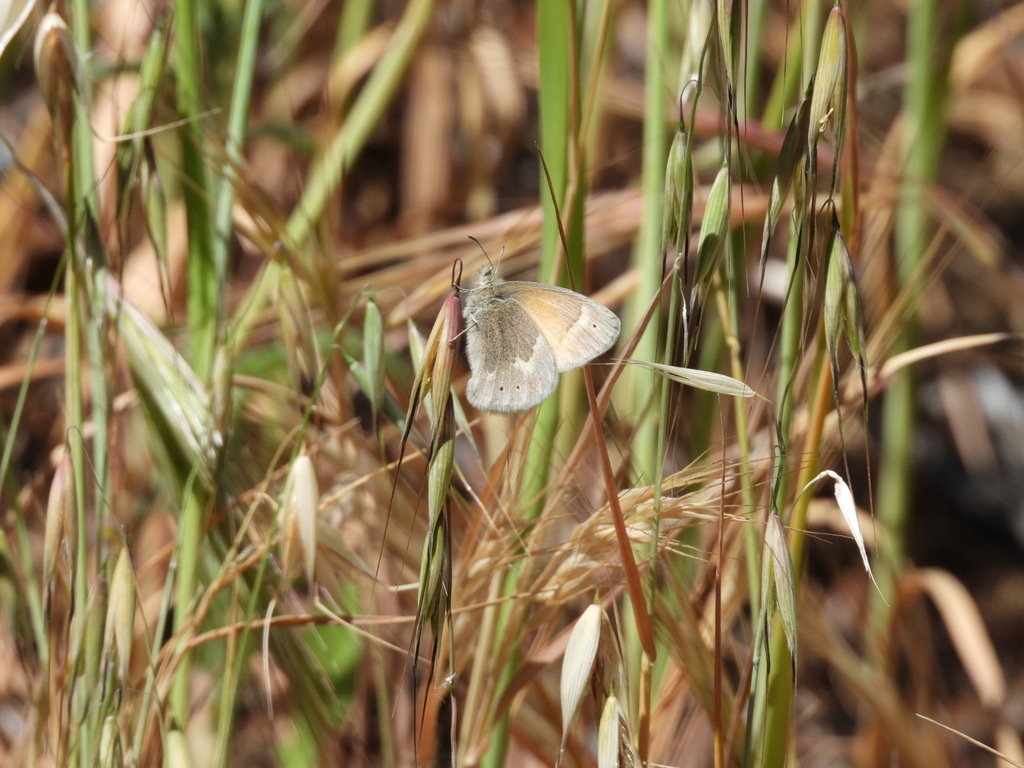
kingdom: Animalia
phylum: Arthropoda
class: Insecta
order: Lepidoptera
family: Nymphalidae
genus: Coenonympha
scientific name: Coenonympha california
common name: Common ringlet
